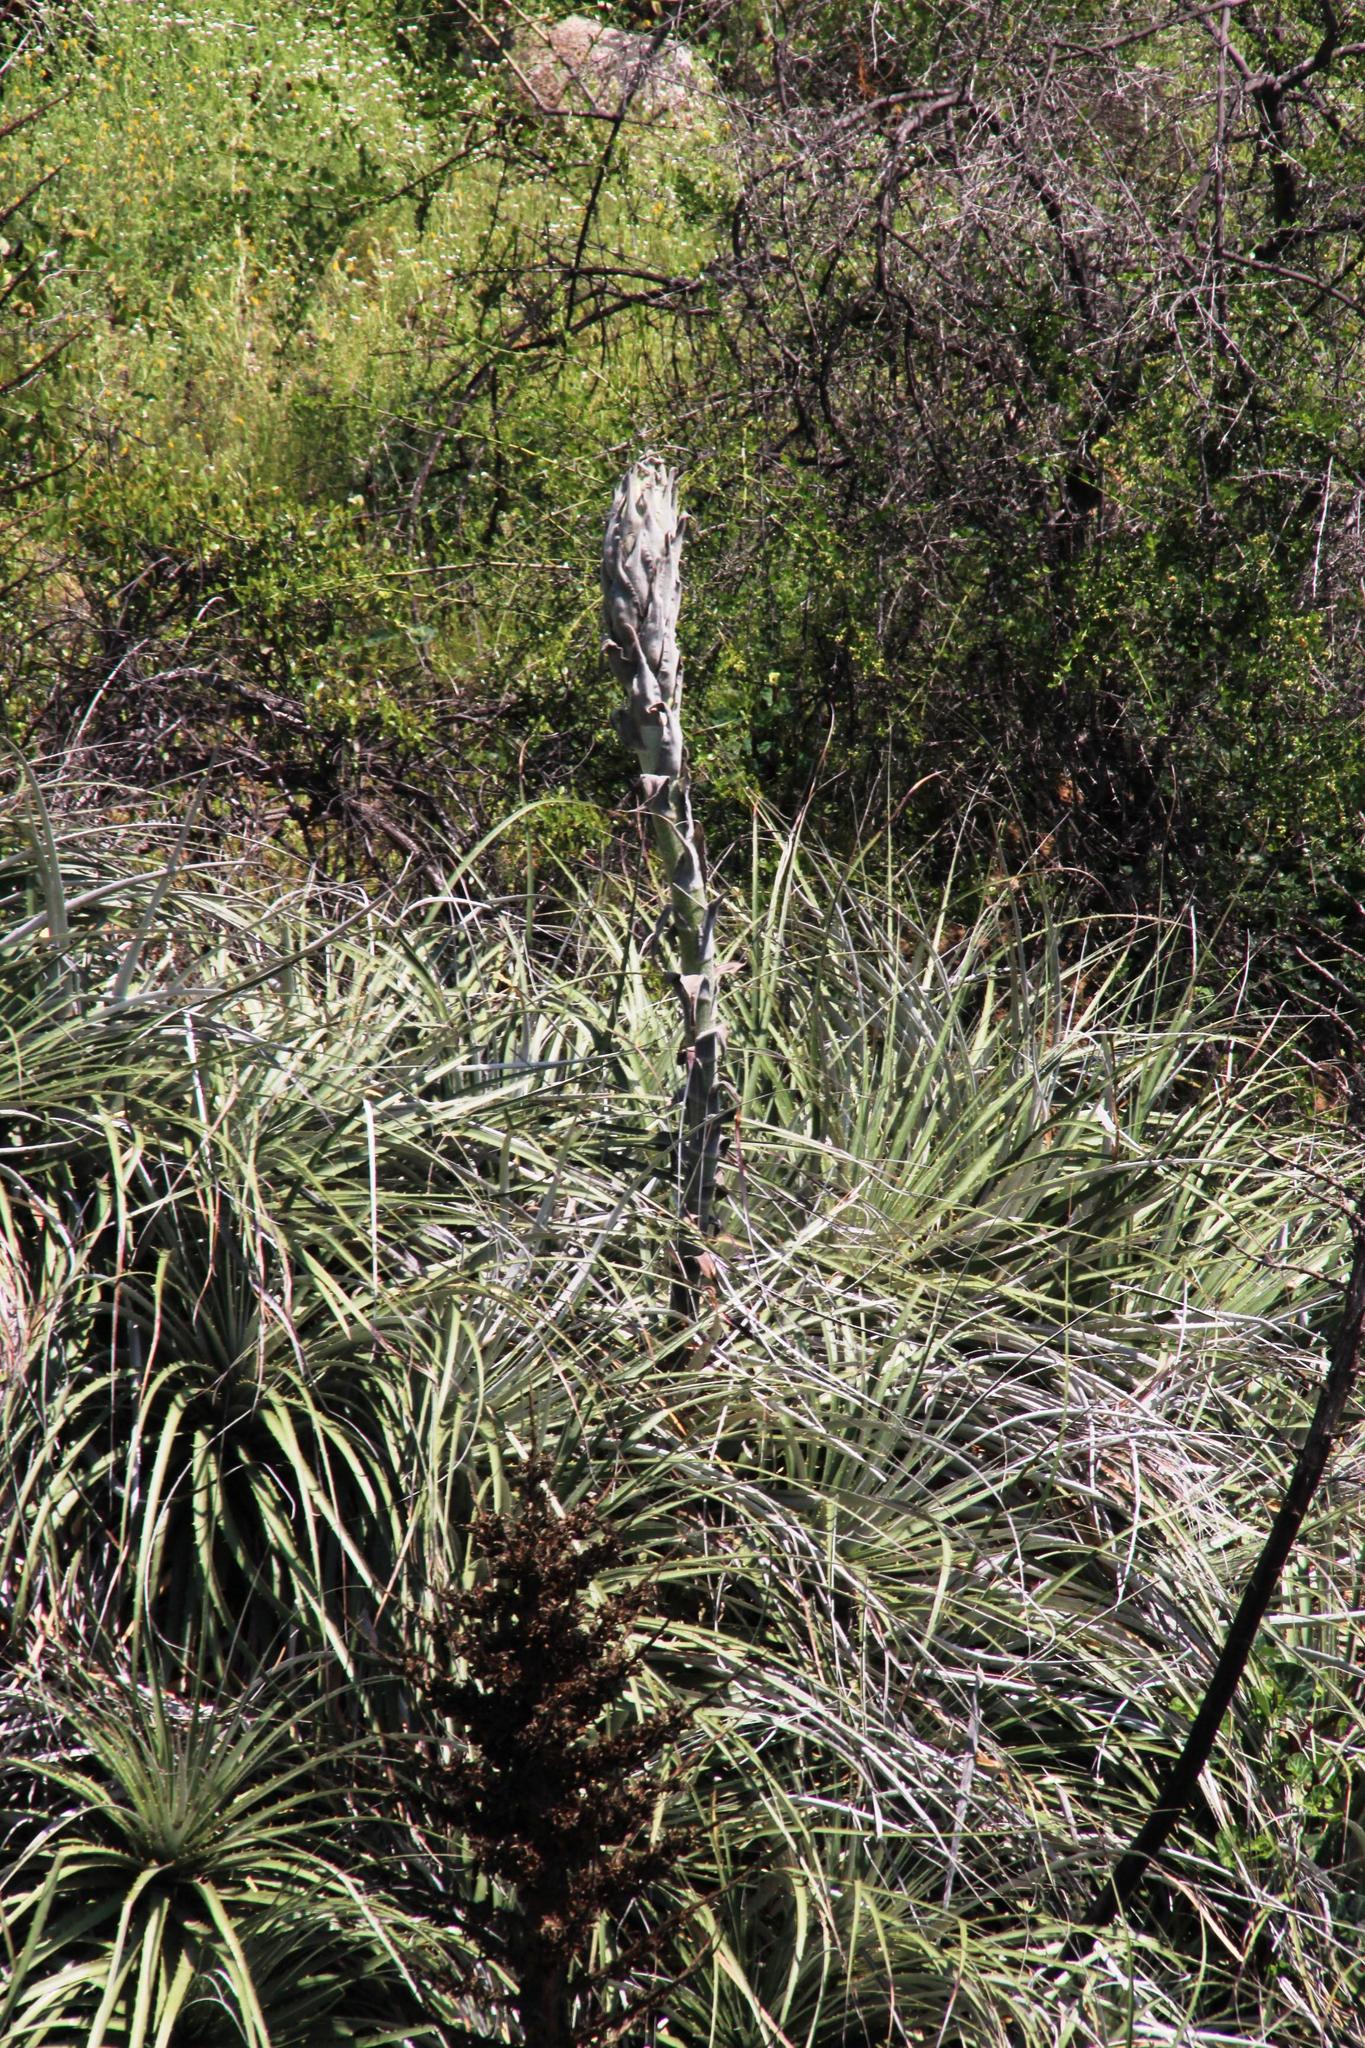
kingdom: Plantae
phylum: Tracheophyta
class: Liliopsida
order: Poales
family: Bromeliaceae
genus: Puya
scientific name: Puya alpestris
